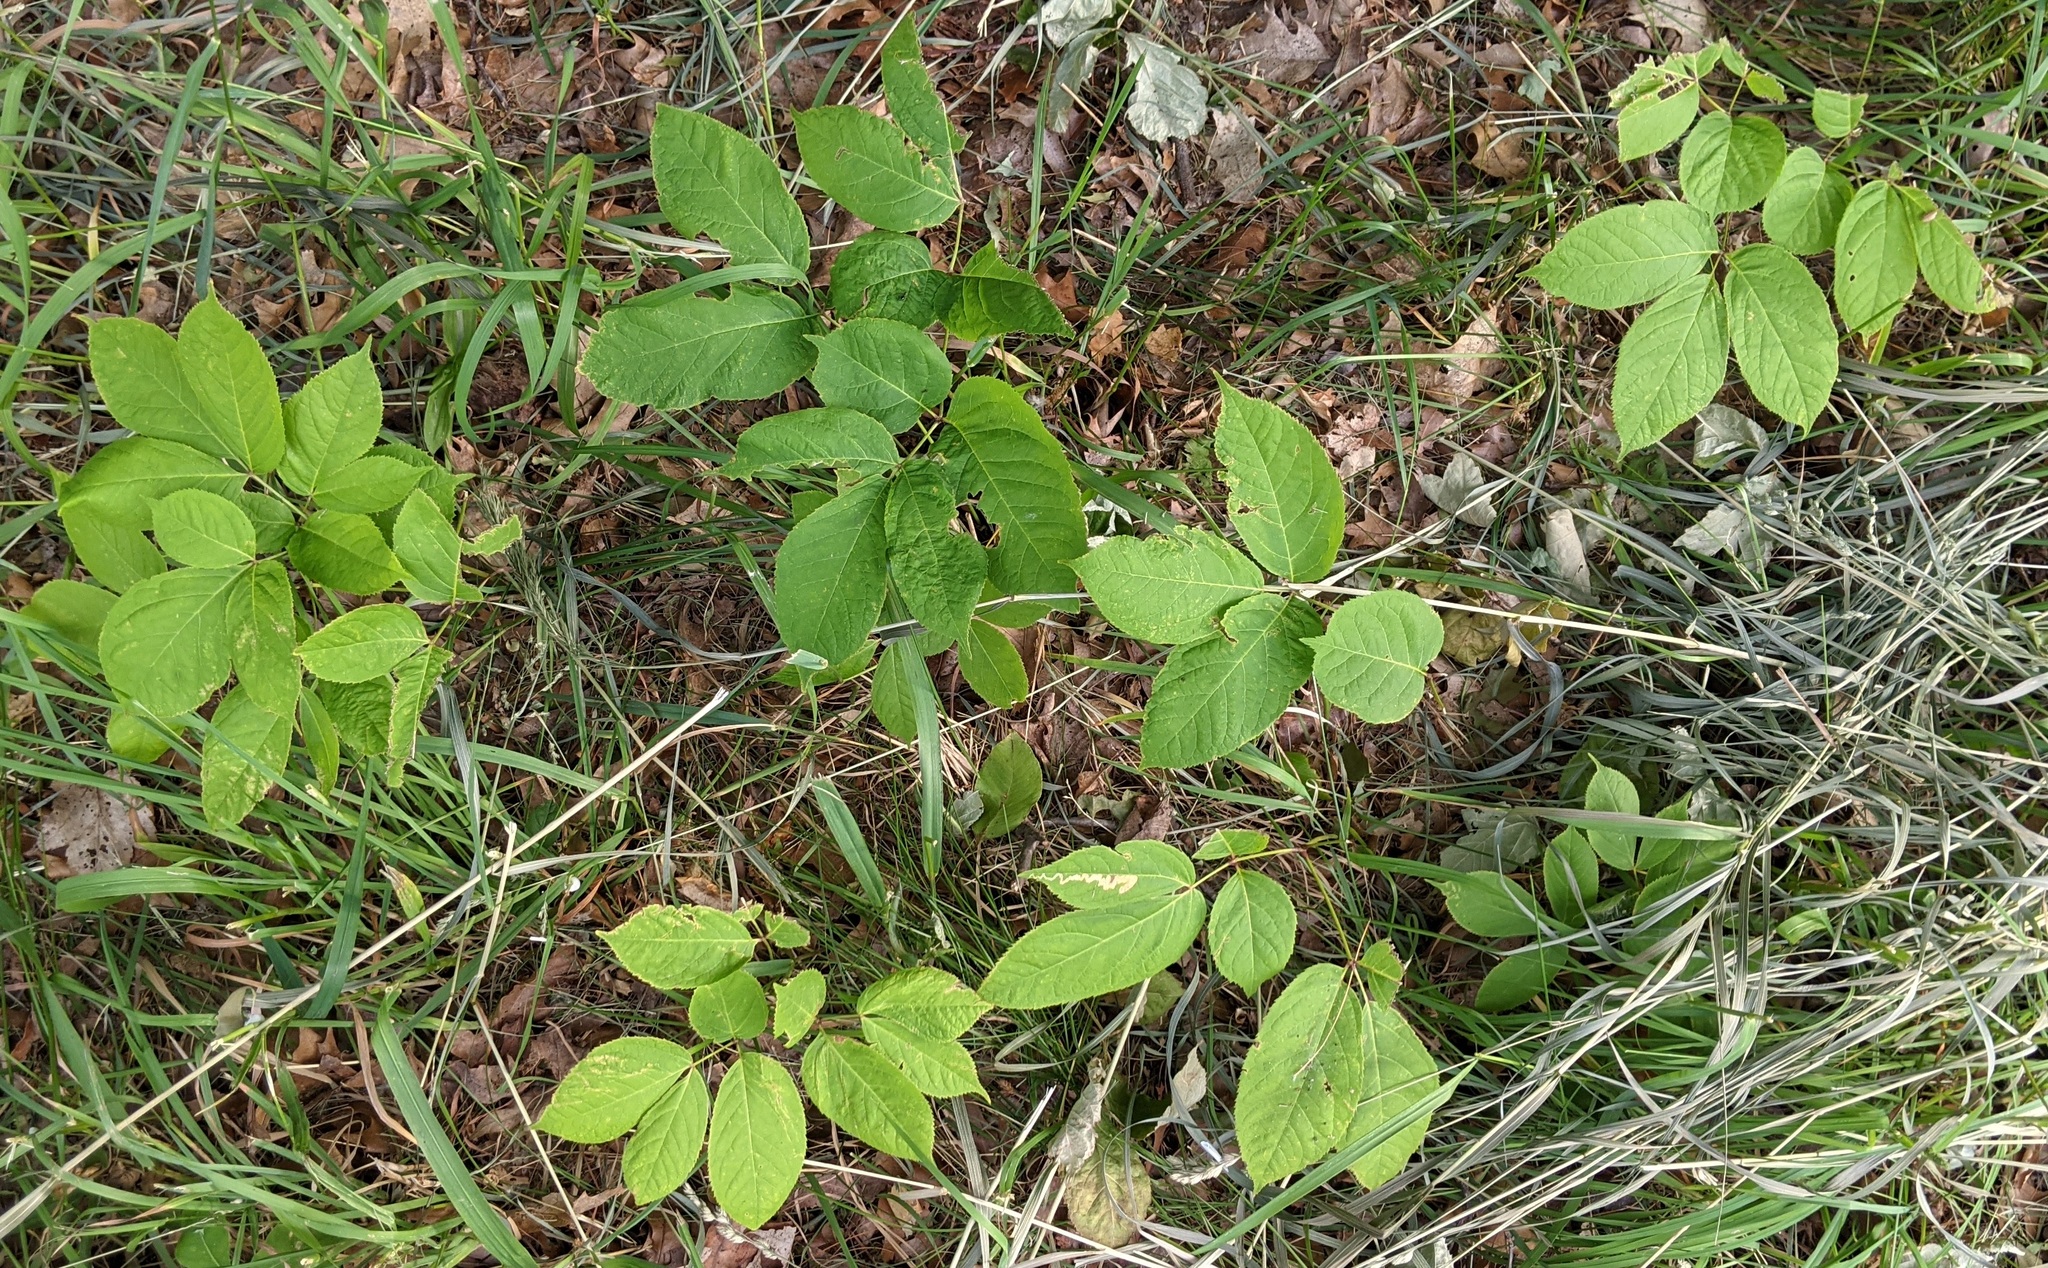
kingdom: Plantae
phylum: Tracheophyta
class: Magnoliopsida
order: Apiales
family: Araliaceae
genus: Aralia
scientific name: Aralia nudicaulis
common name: Wild sarsaparilla
